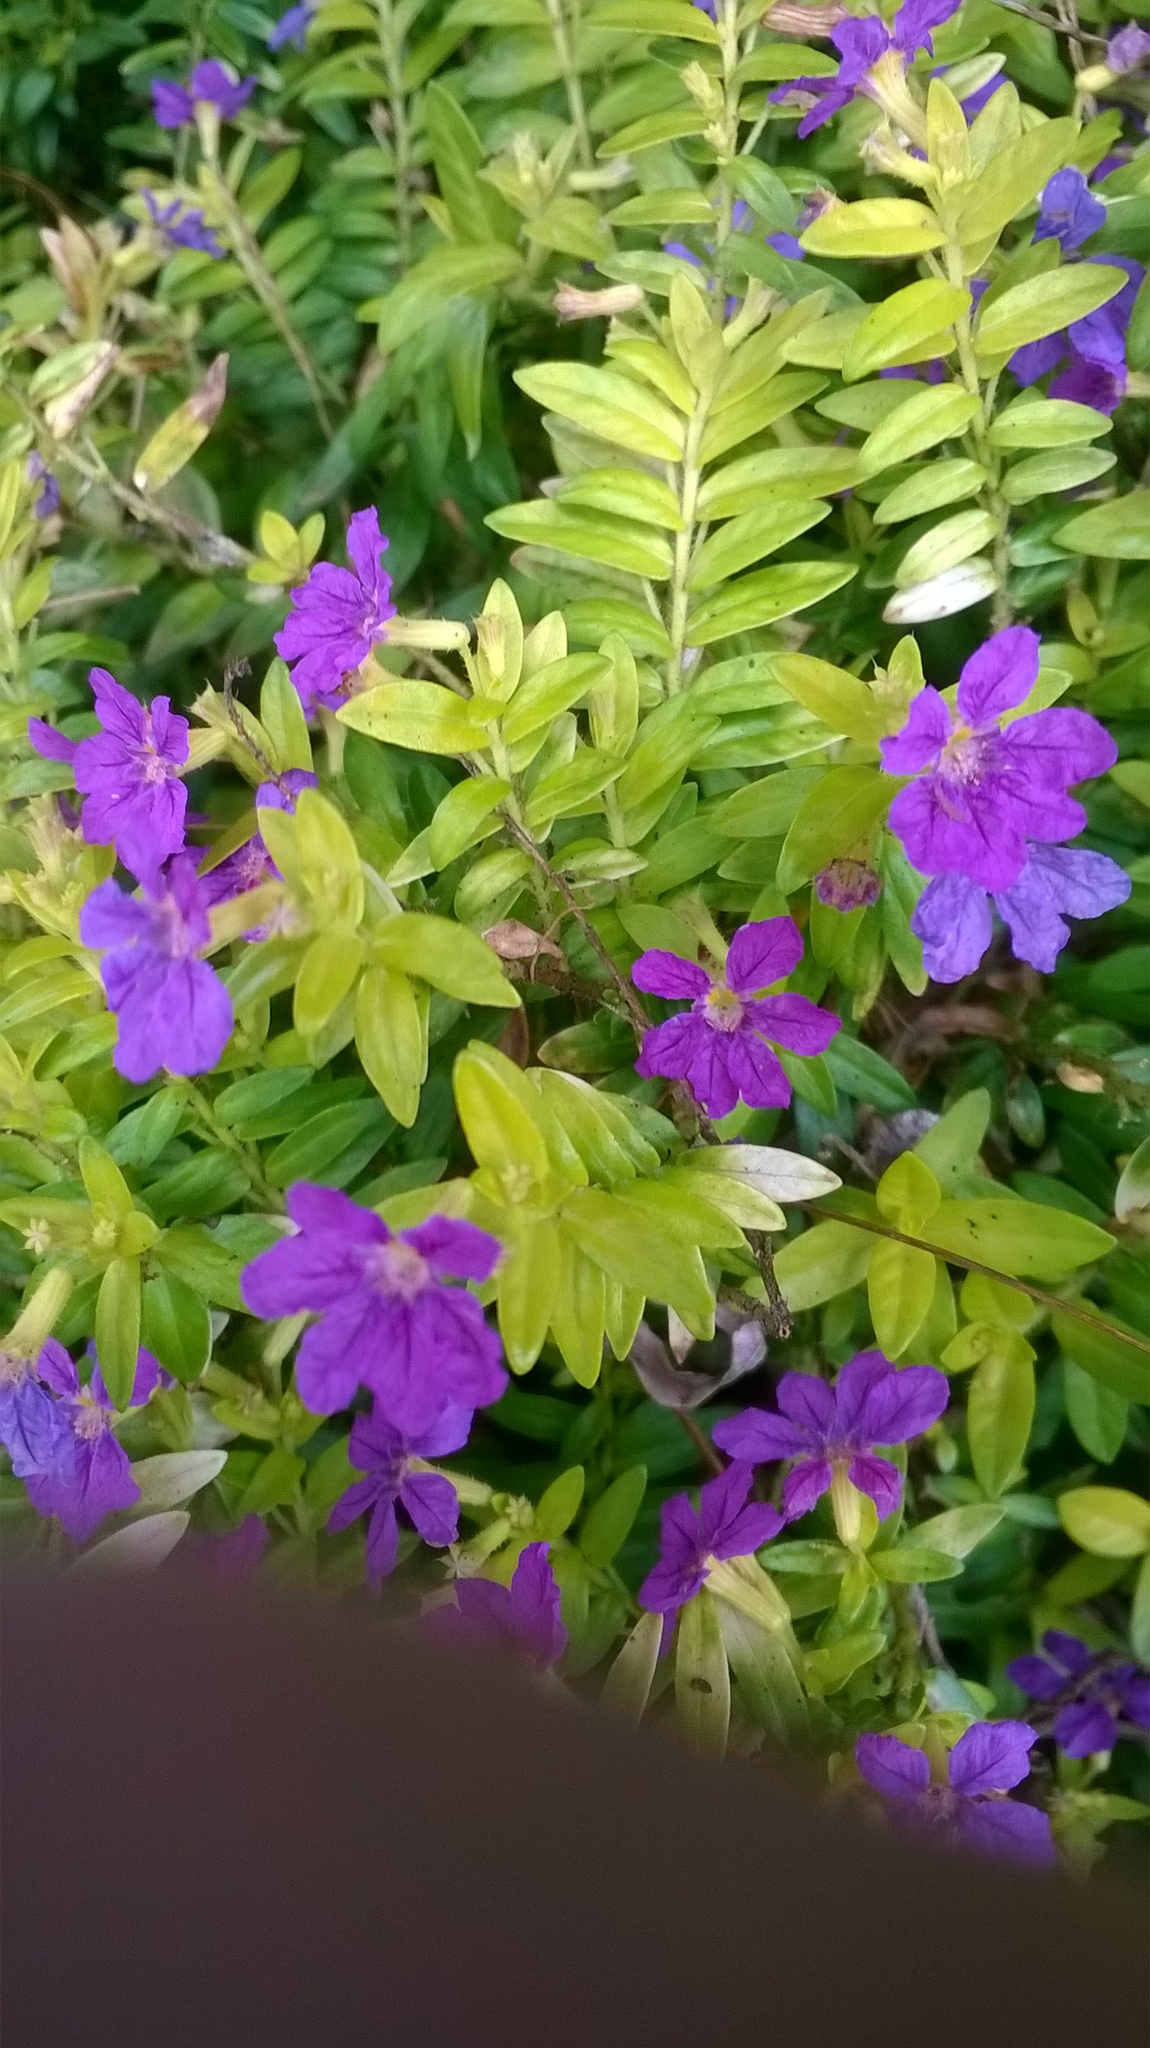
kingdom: Plantae
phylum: Tracheophyta
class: Magnoliopsida
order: Myrtales
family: Lythraceae
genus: Cuphea
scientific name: Cuphea hyssopifolia
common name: False heather
